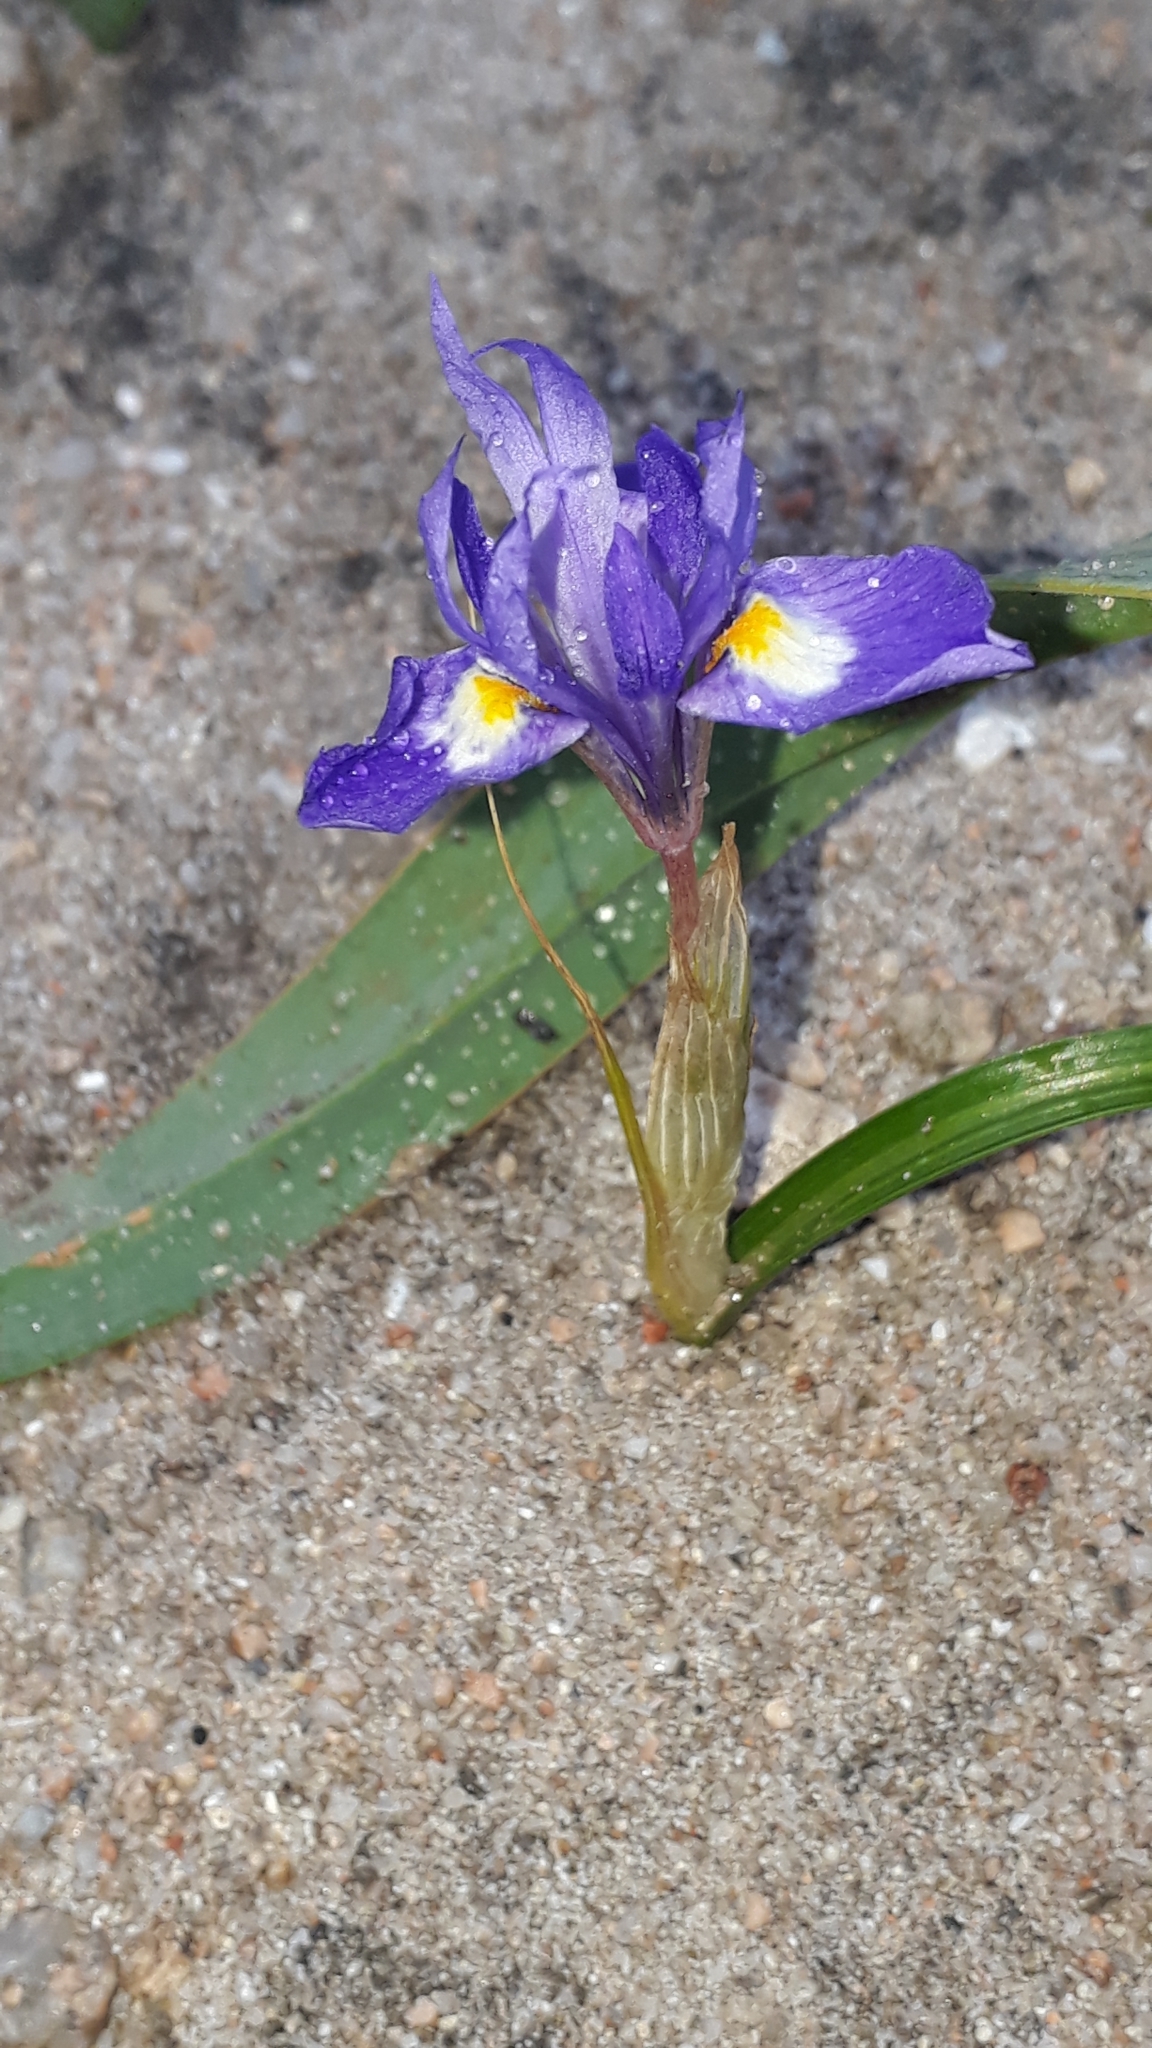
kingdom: Plantae
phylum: Tracheophyta
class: Liliopsida
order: Asparagales
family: Iridaceae
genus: Moraea
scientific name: Moraea sisyrinchium
